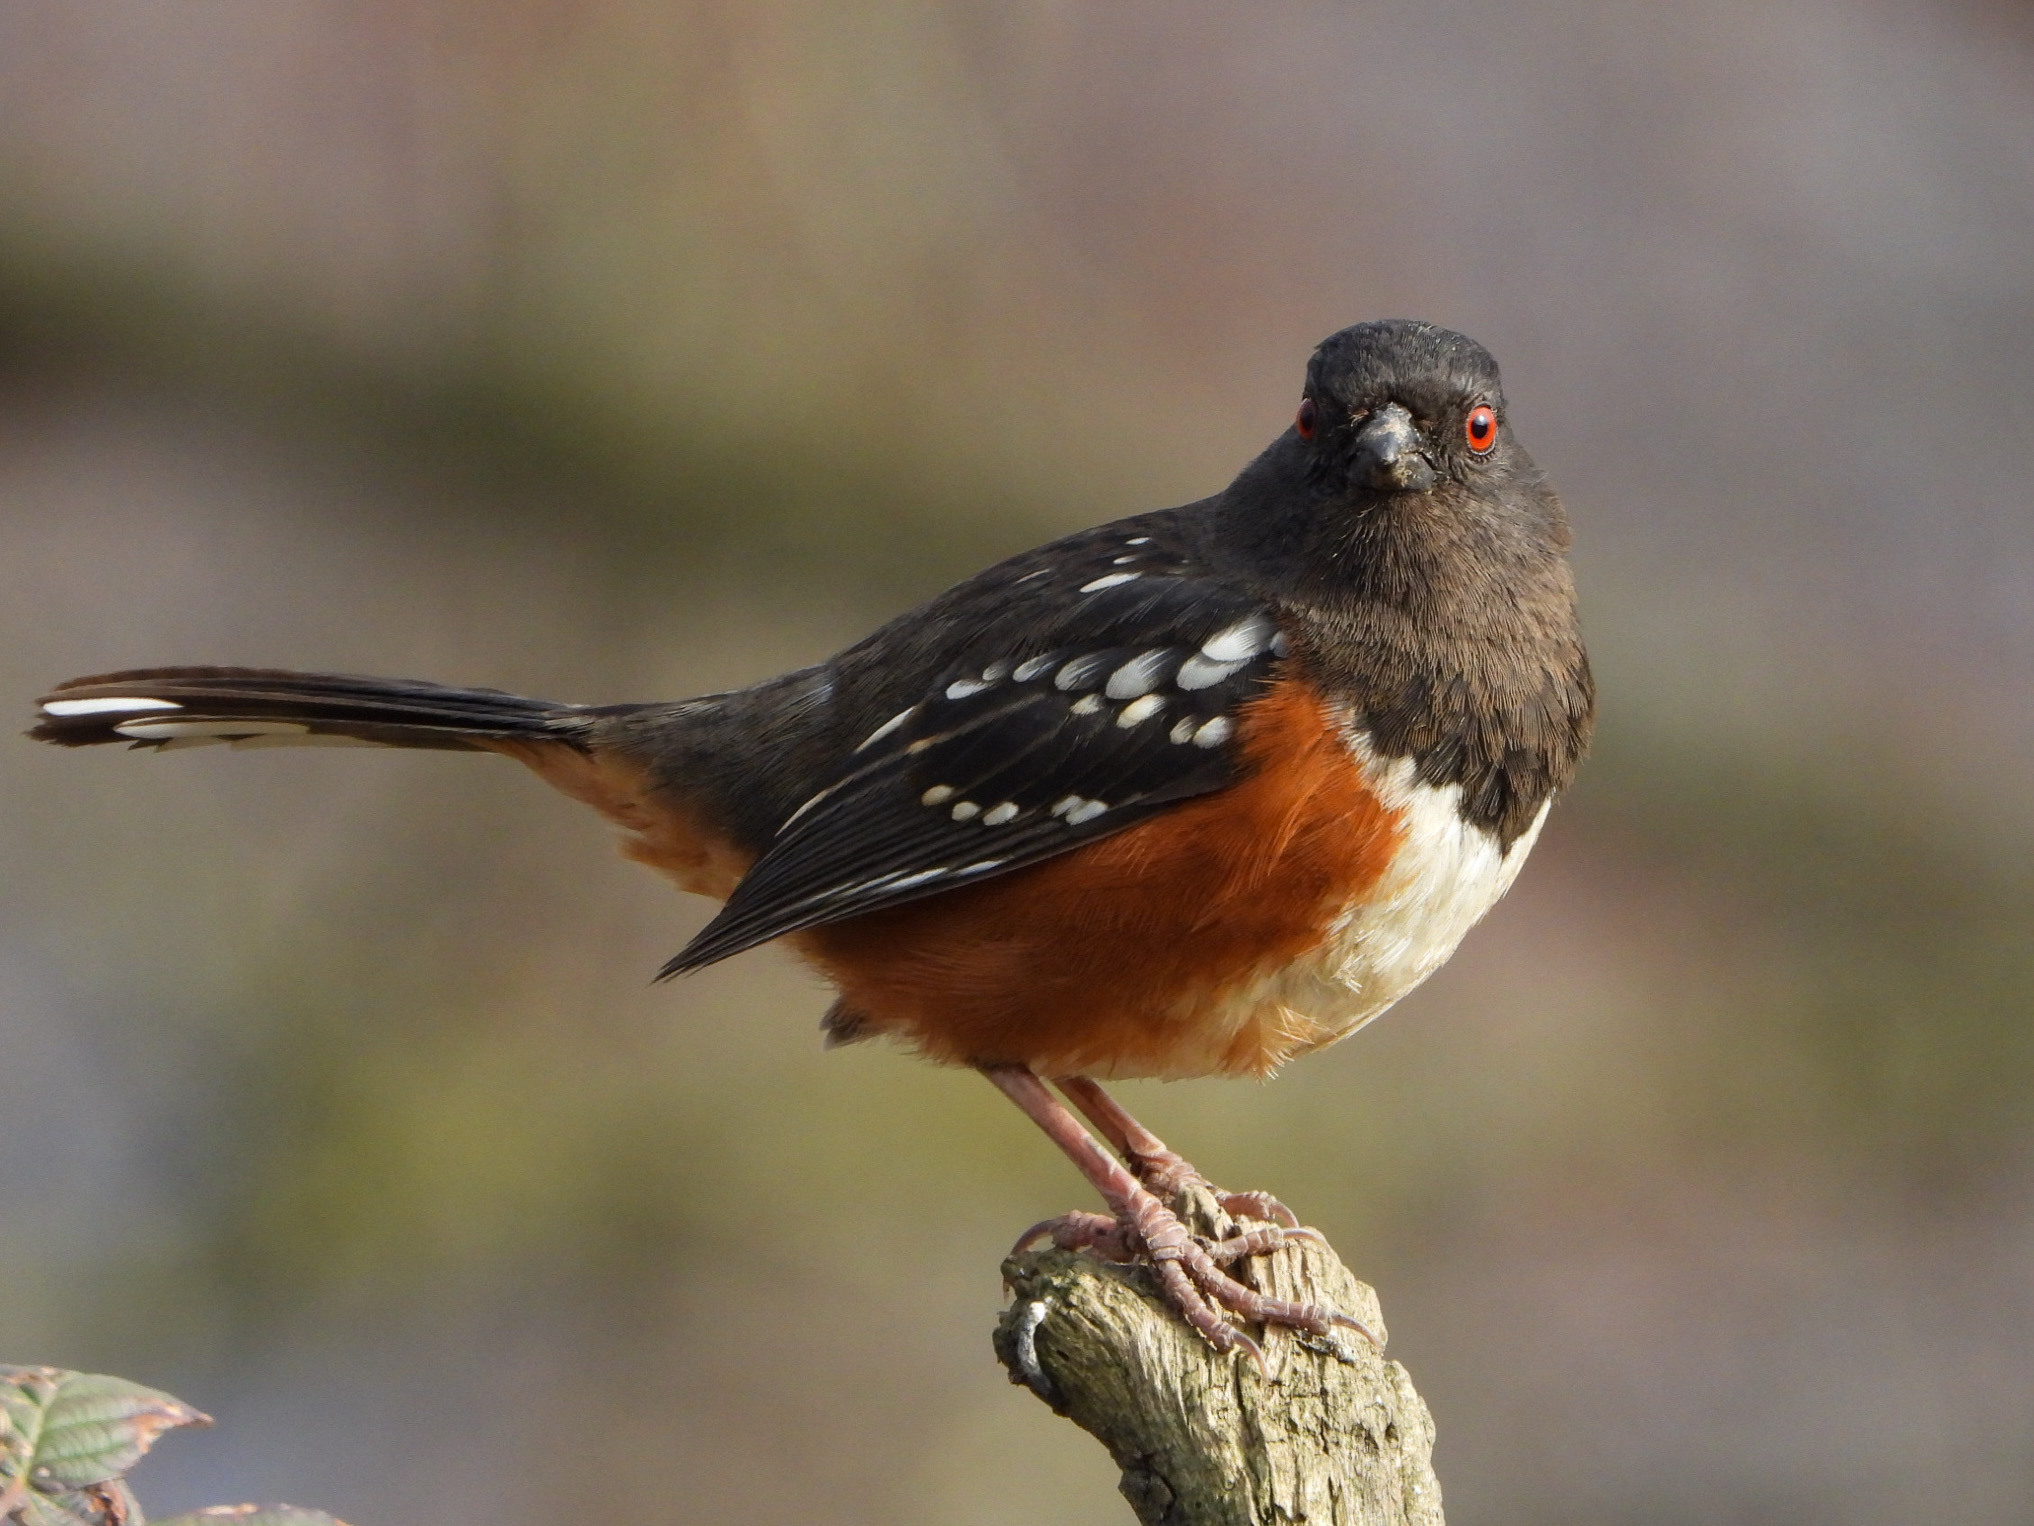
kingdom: Animalia
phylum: Chordata
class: Aves
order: Passeriformes
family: Passerellidae
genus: Pipilo
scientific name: Pipilo maculatus
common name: Spotted towhee
